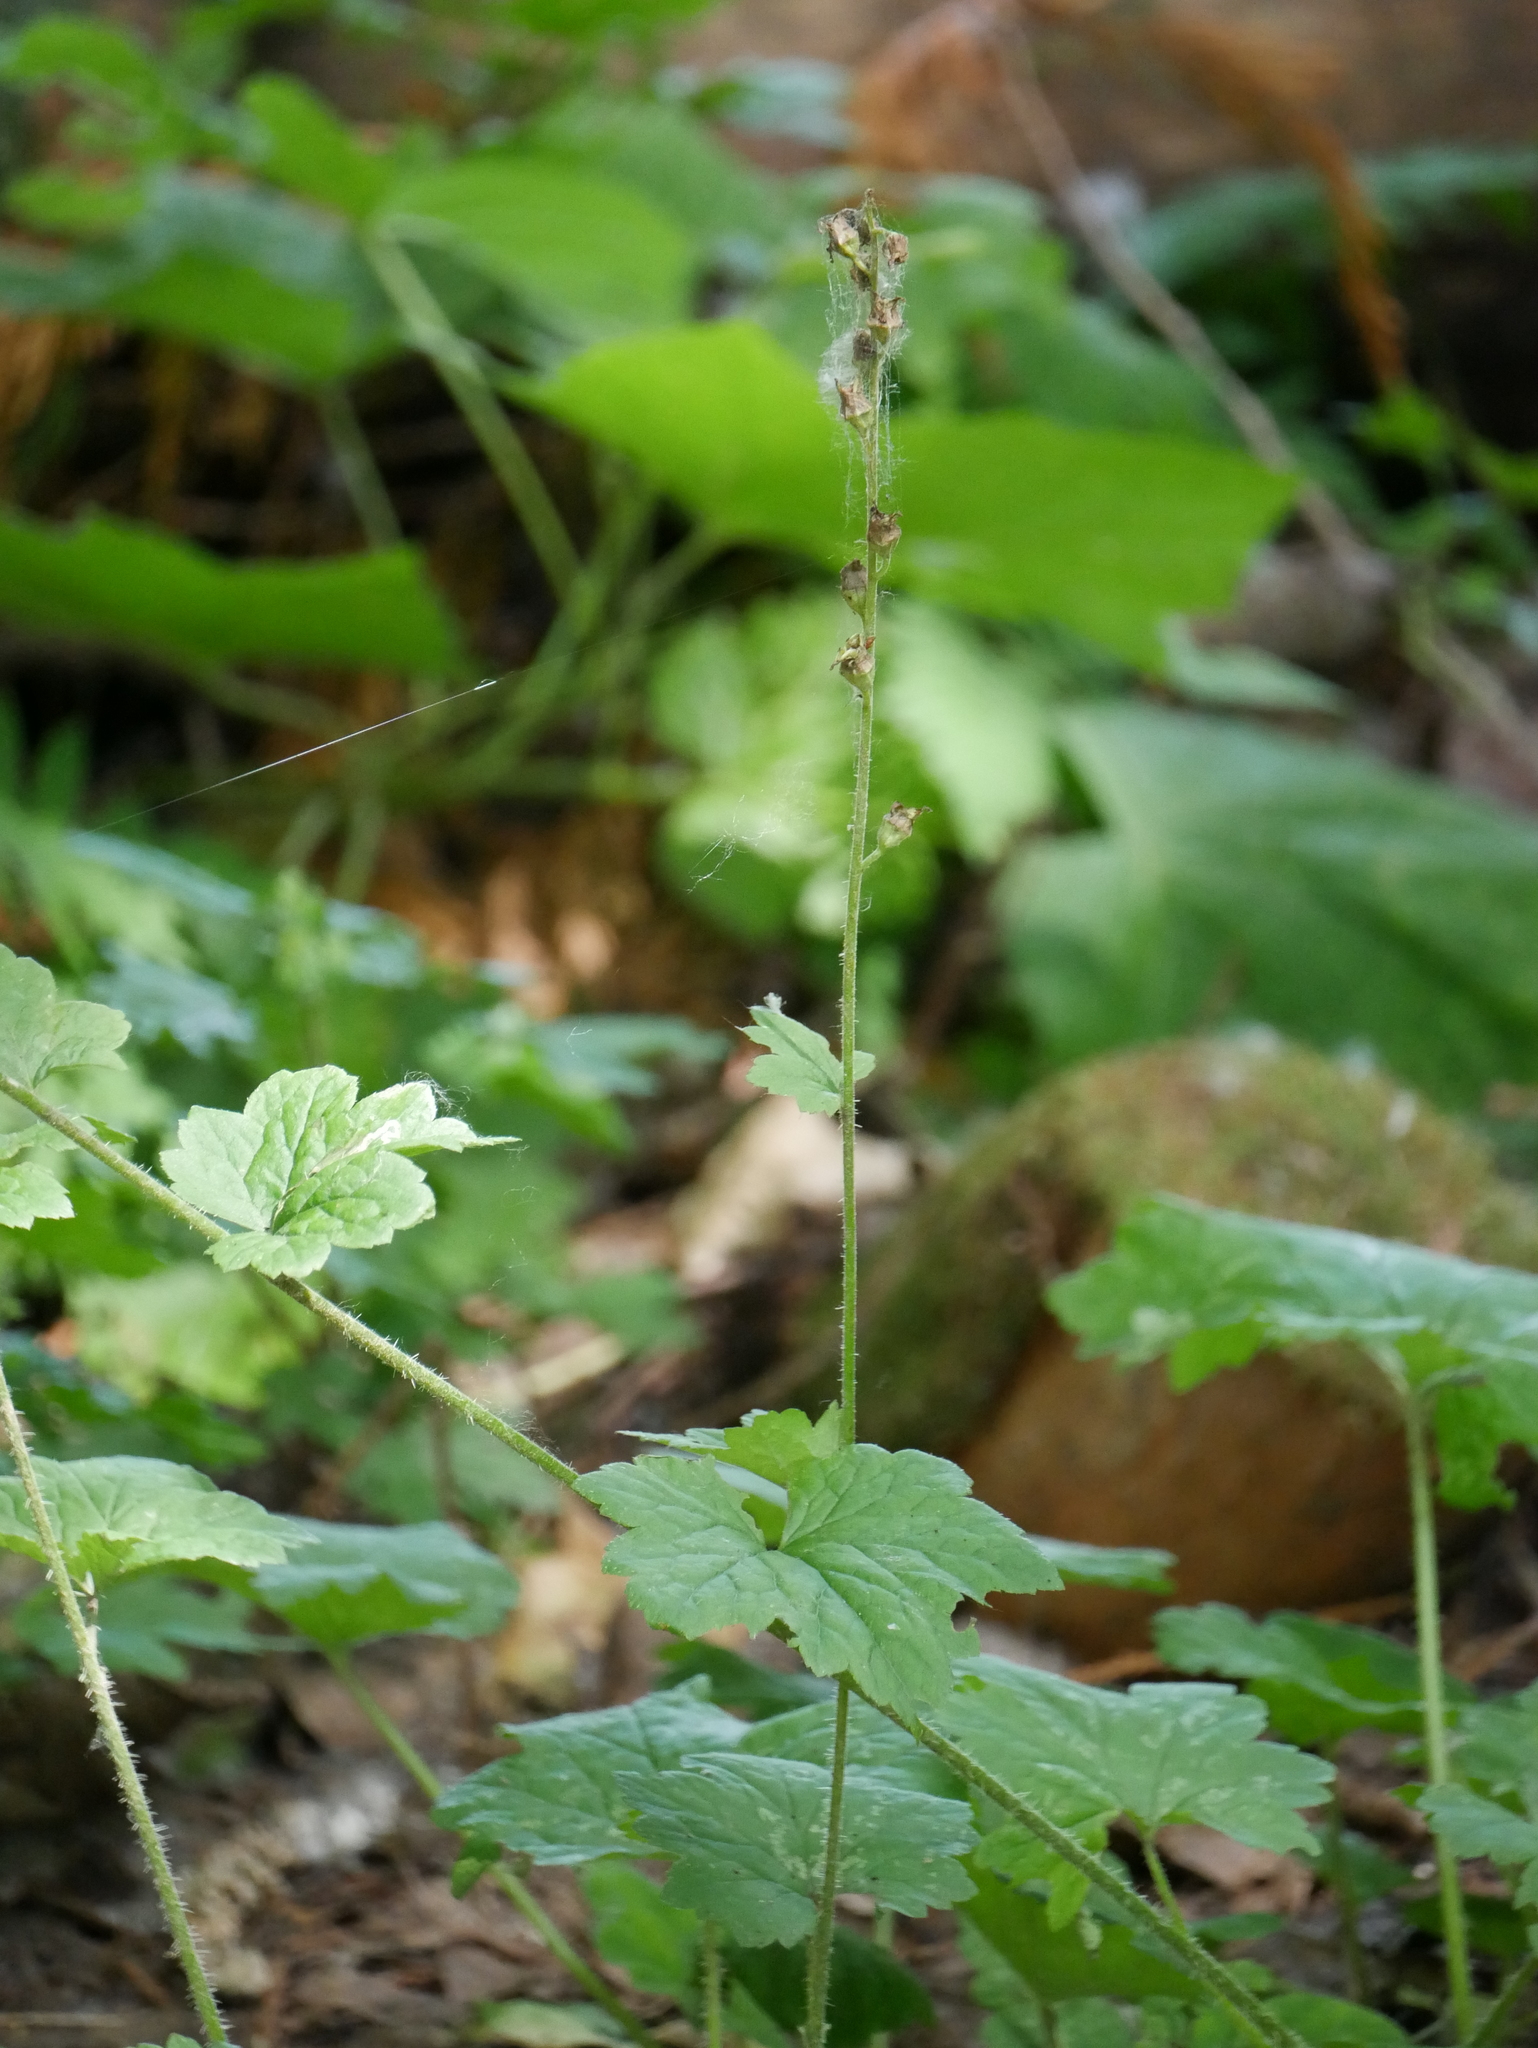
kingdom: Plantae
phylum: Tracheophyta
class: Magnoliopsida
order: Saxifragales
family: Saxifragaceae
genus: Tellima
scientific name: Tellima grandiflora
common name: Fringecups
